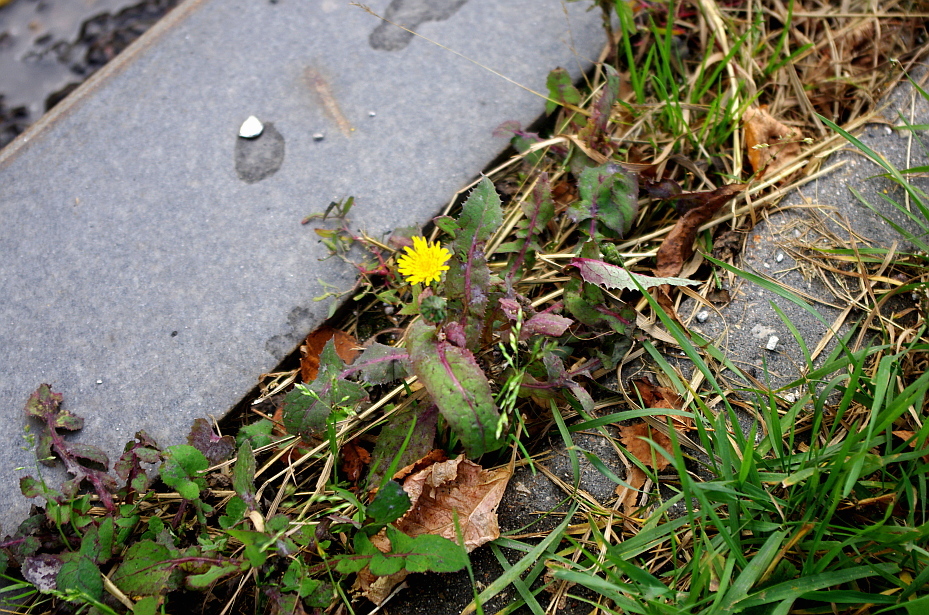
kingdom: Plantae
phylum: Tracheophyta
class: Magnoliopsida
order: Asterales
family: Asteraceae
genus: Sonchus
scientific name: Sonchus oleraceus
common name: Common sowthistle
